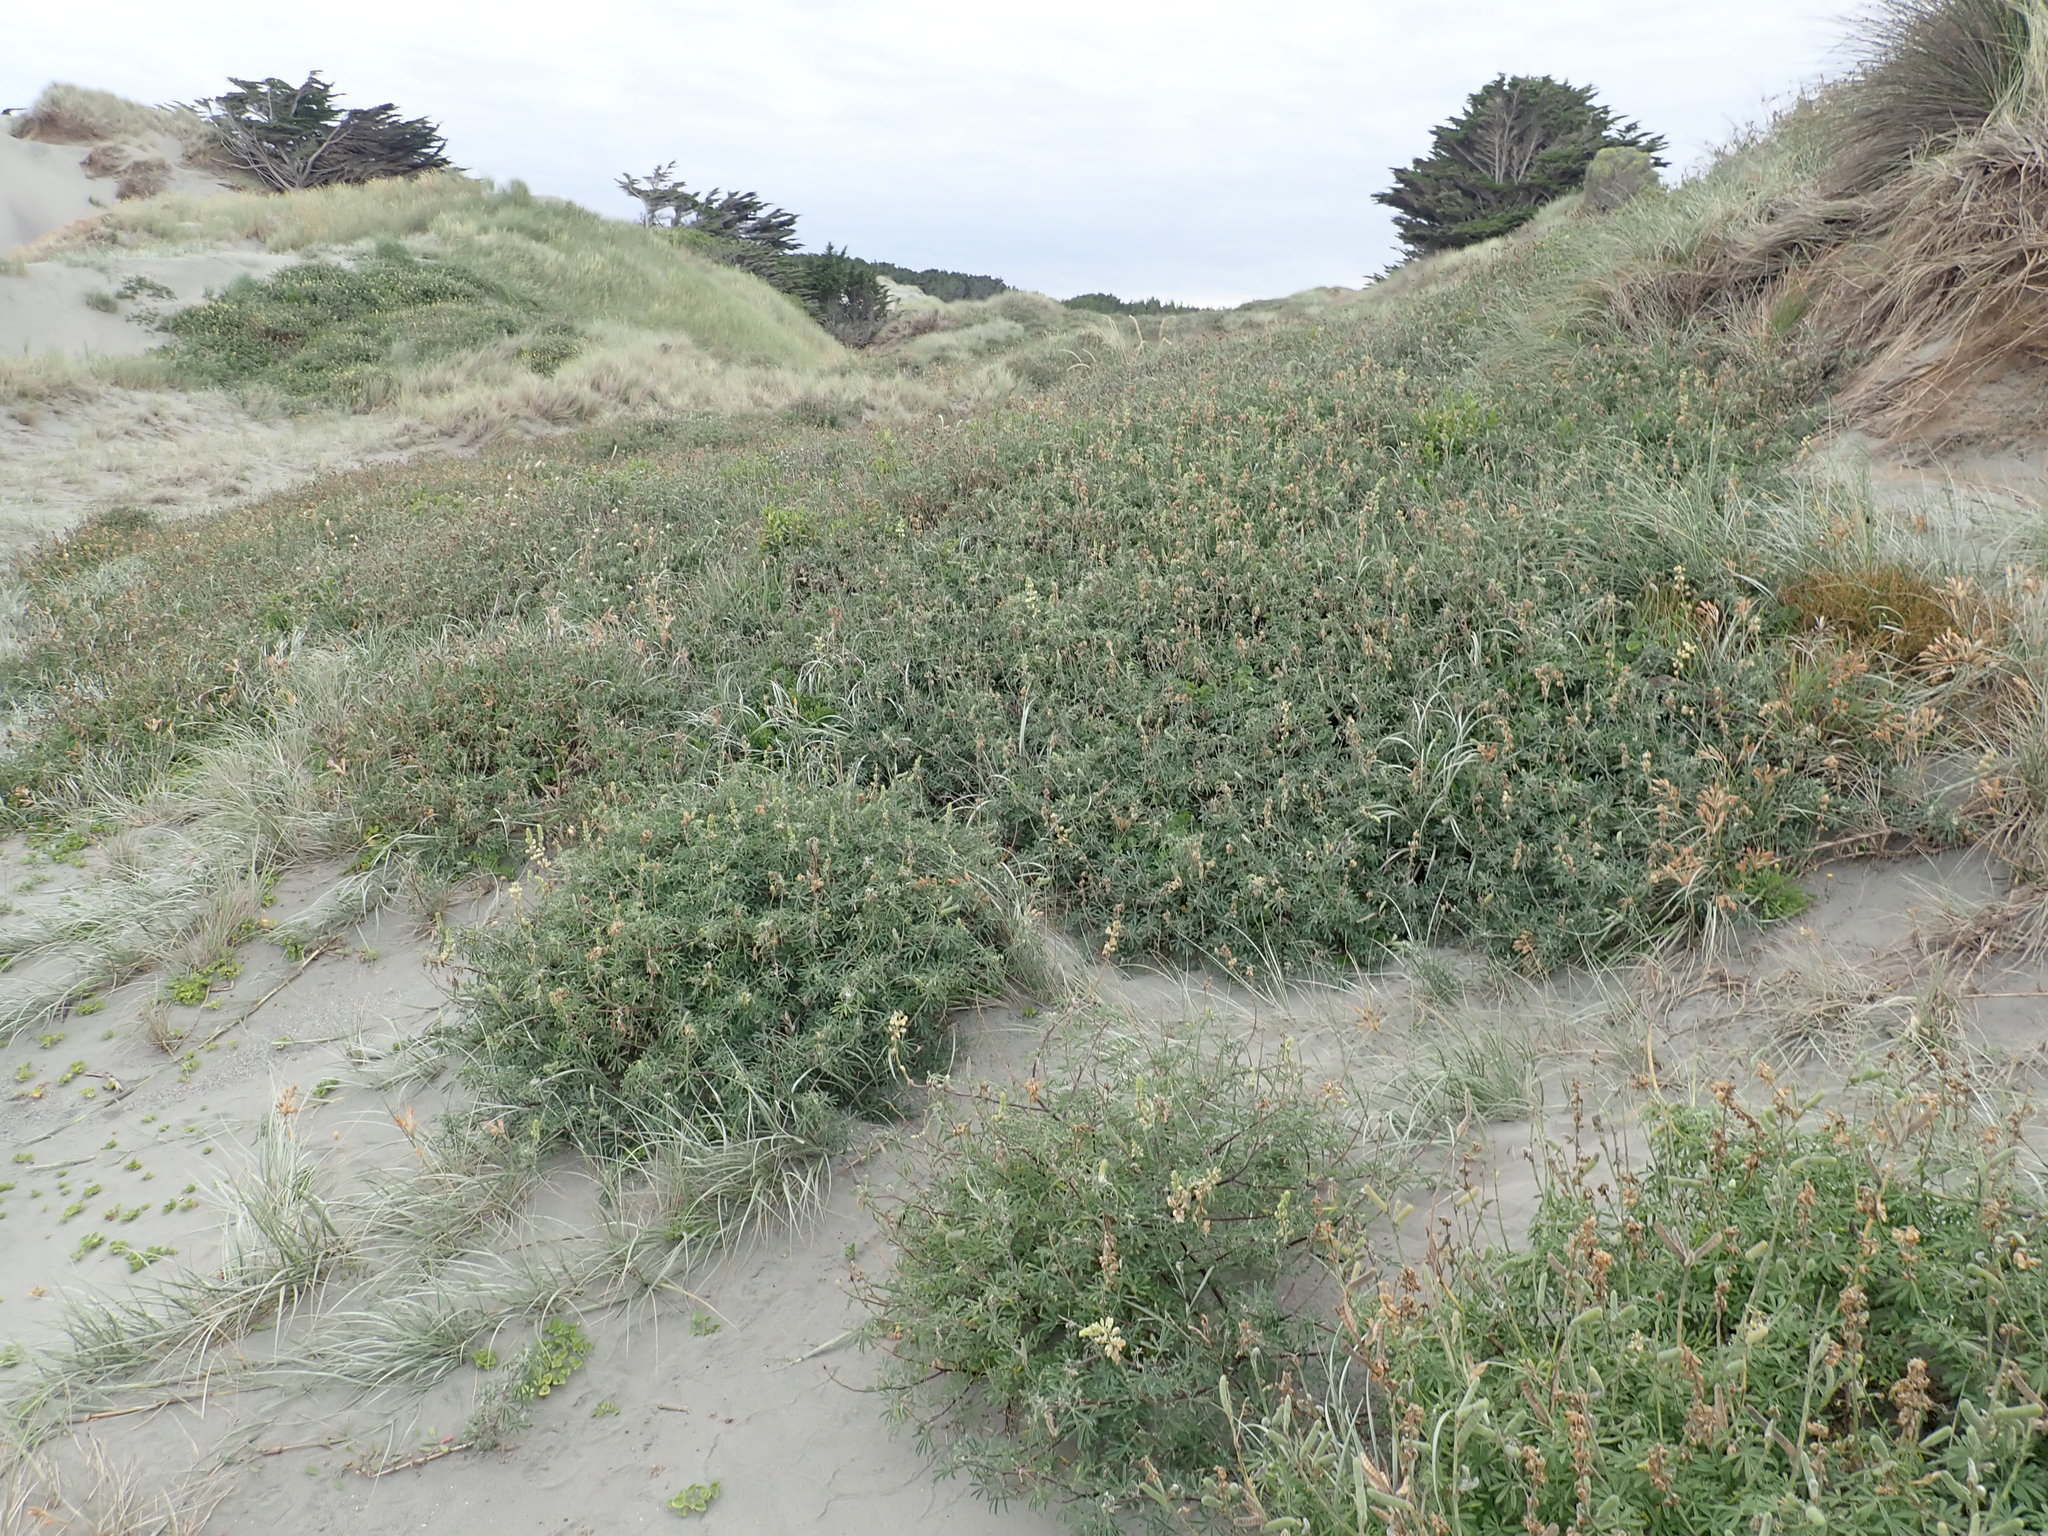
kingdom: Plantae
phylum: Tracheophyta
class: Magnoliopsida
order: Fabales
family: Fabaceae
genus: Lupinus
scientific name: Lupinus arboreus
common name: Yellow bush lupine
